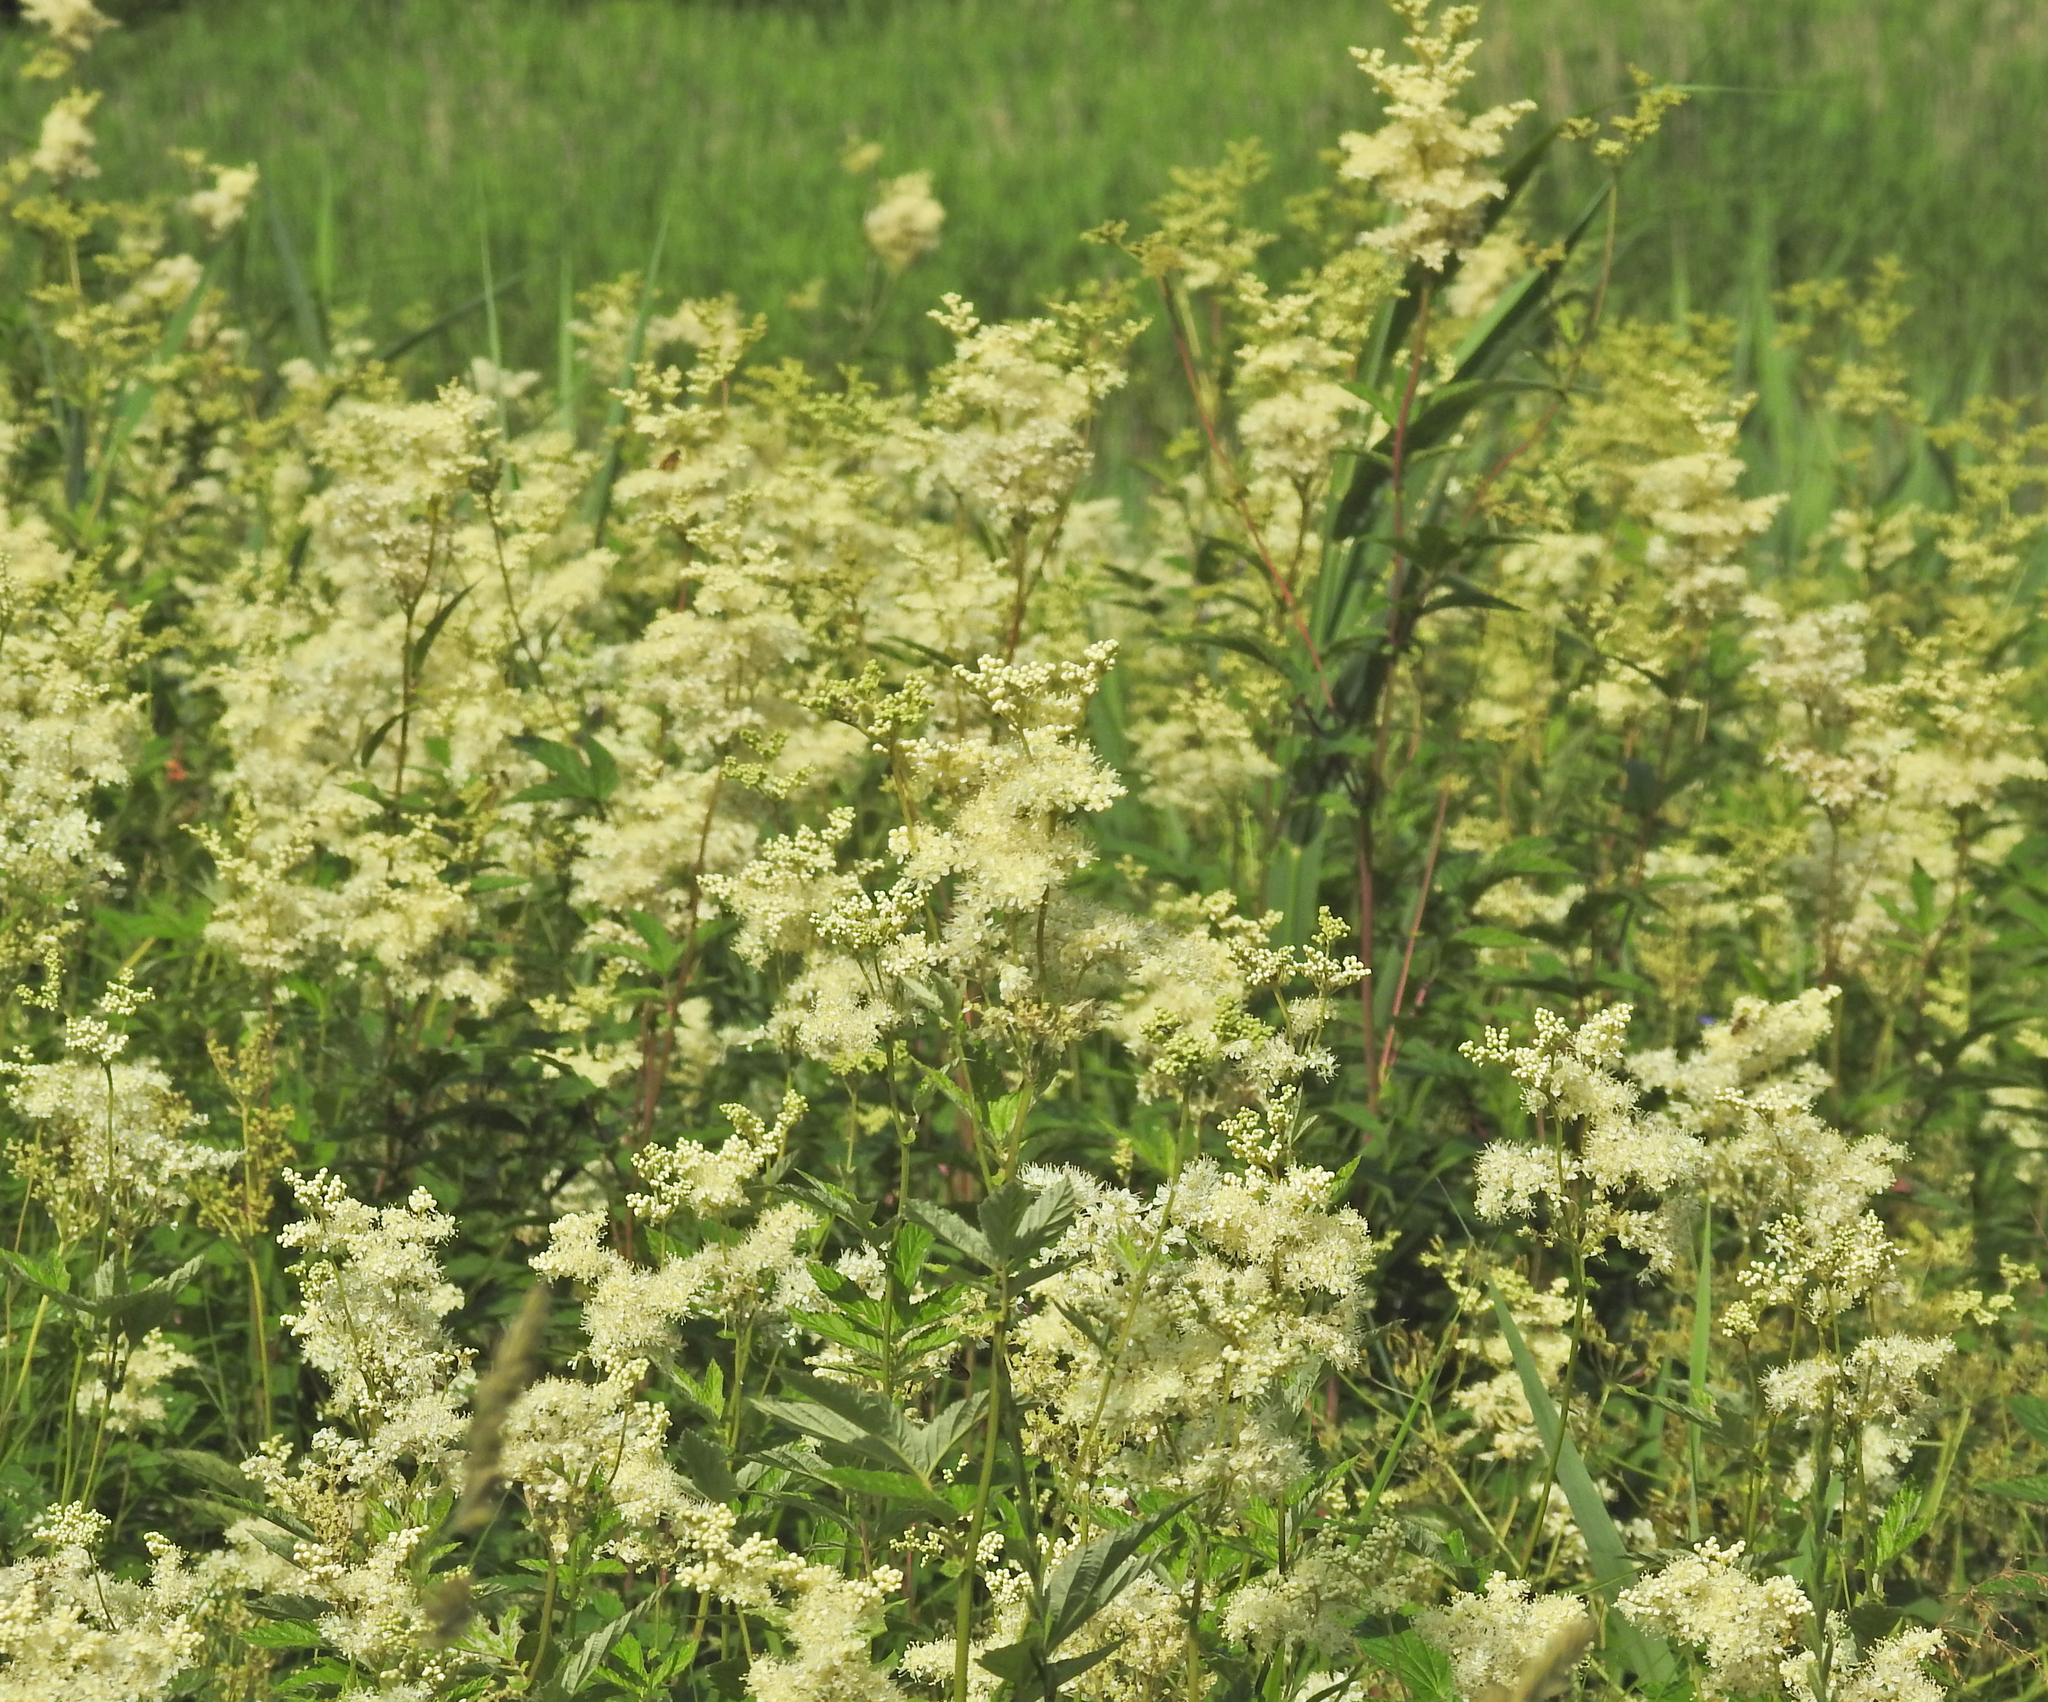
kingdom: Plantae
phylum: Tracheophyta
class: Magnoliopsida
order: Rosales
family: Rosaceae
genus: Filipendula
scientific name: Filipendula ulmaria
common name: Meadowsweet
